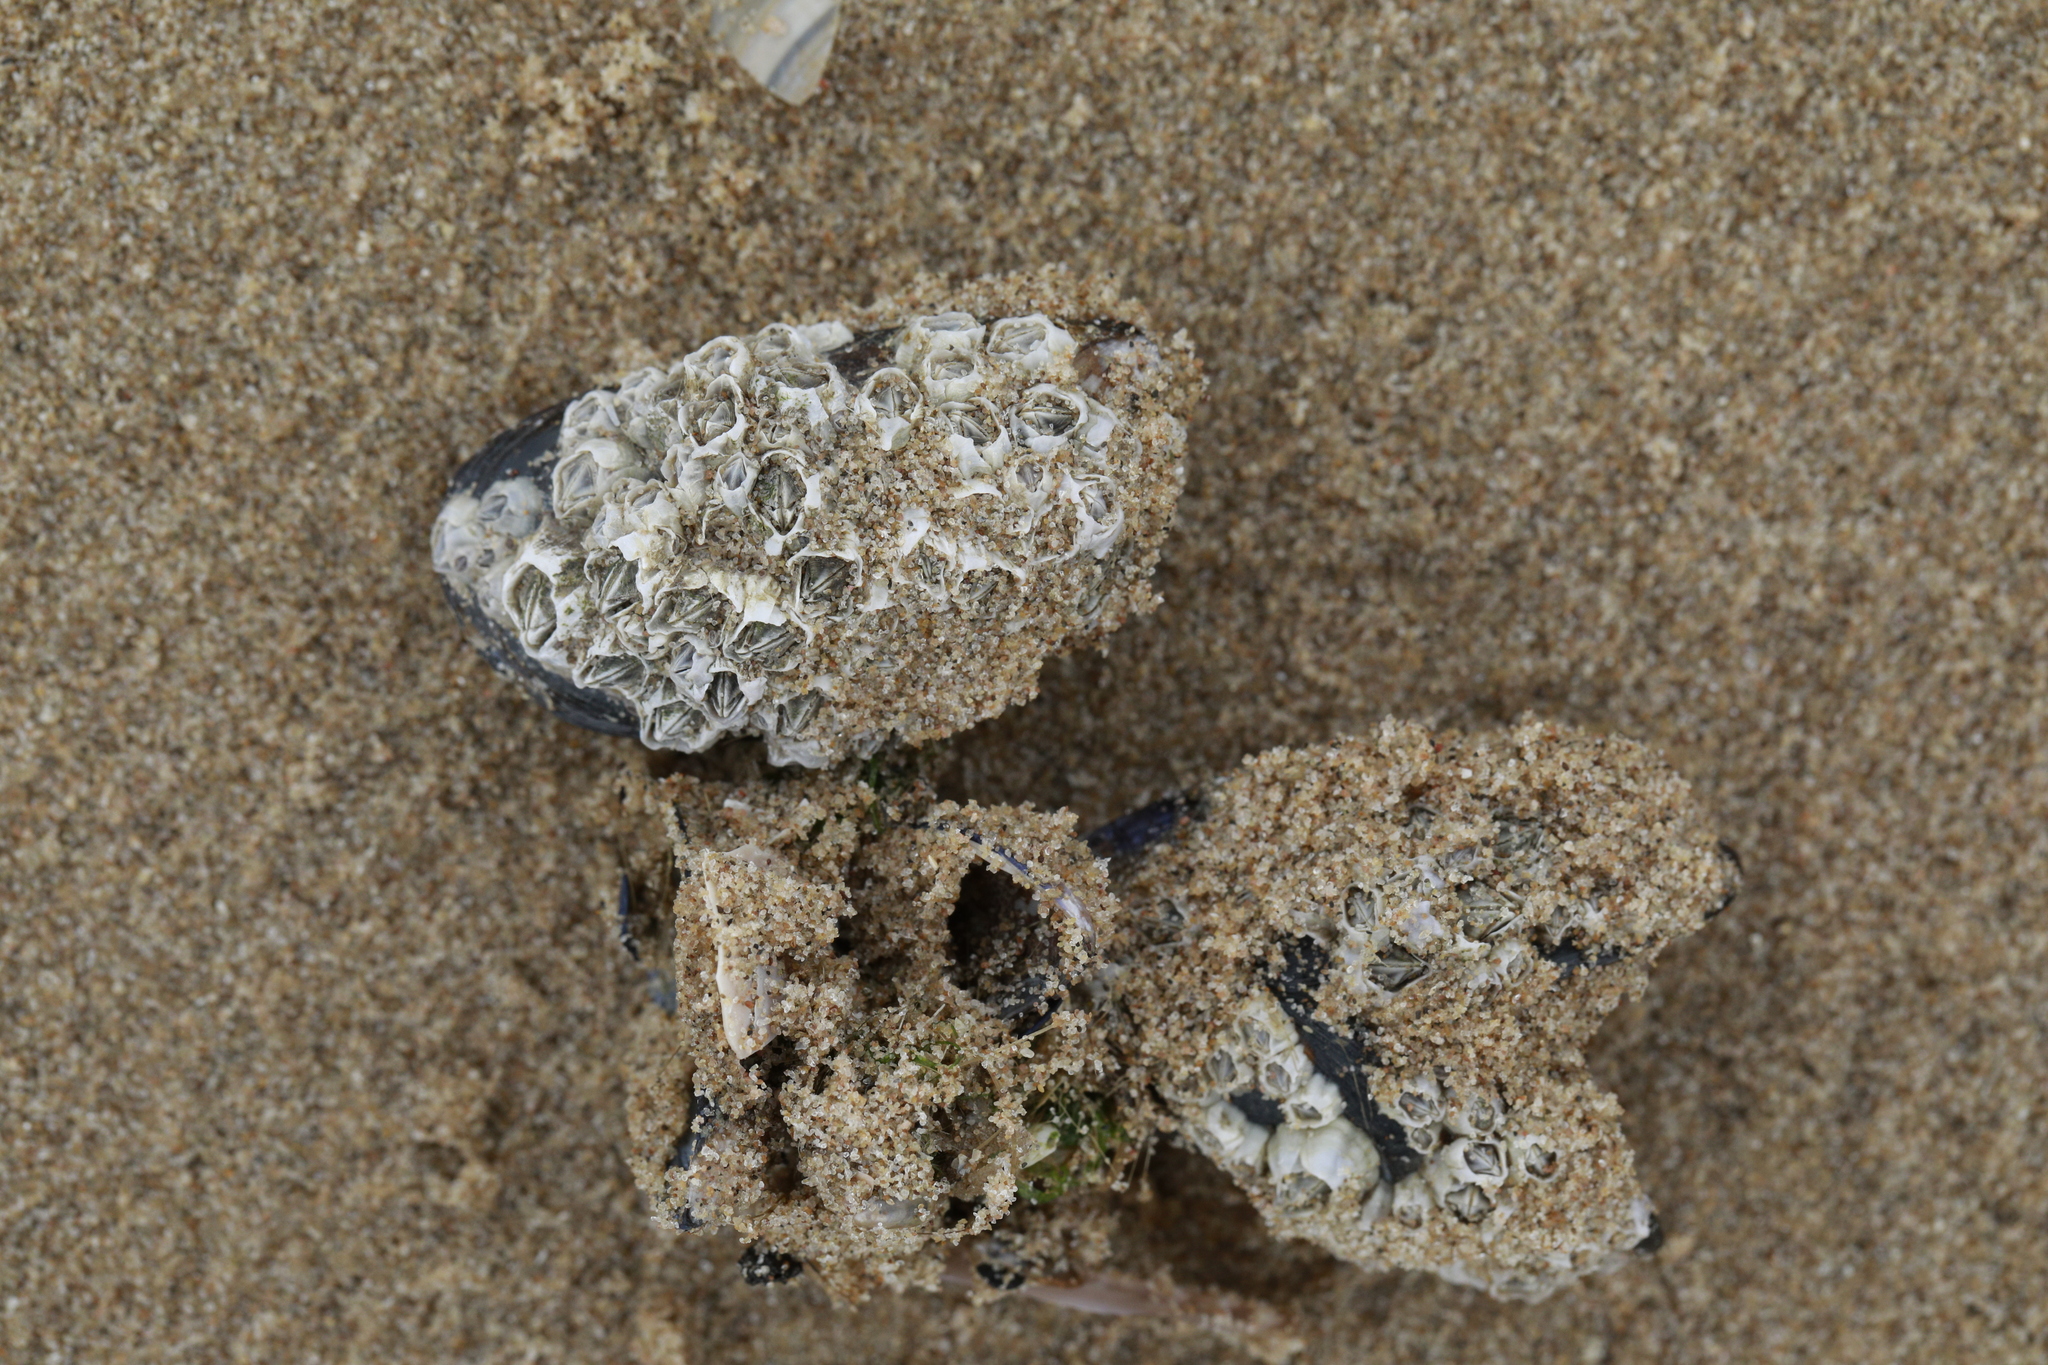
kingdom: Animalia
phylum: Mollusca
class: Bivalvia
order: Mytilida
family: Mytilidae
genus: Mytilus
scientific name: Mytilus edulis
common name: Blue mussel
